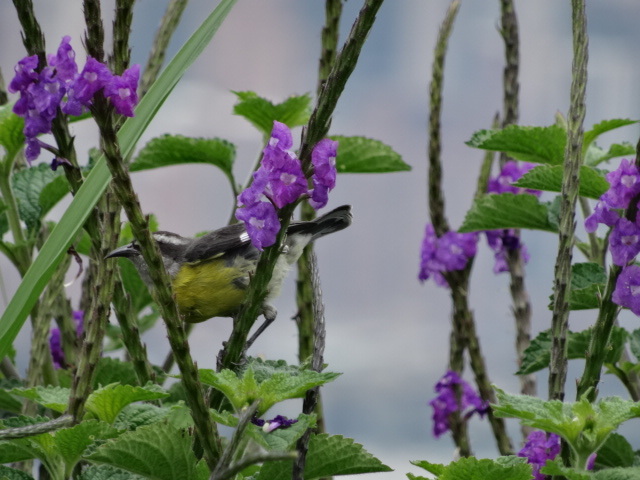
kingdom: Animalia
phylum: Chordata
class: Aves
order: Passeriformes
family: Thraupidae
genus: Coereba
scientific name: Coereba flaveola
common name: Bananaquit
